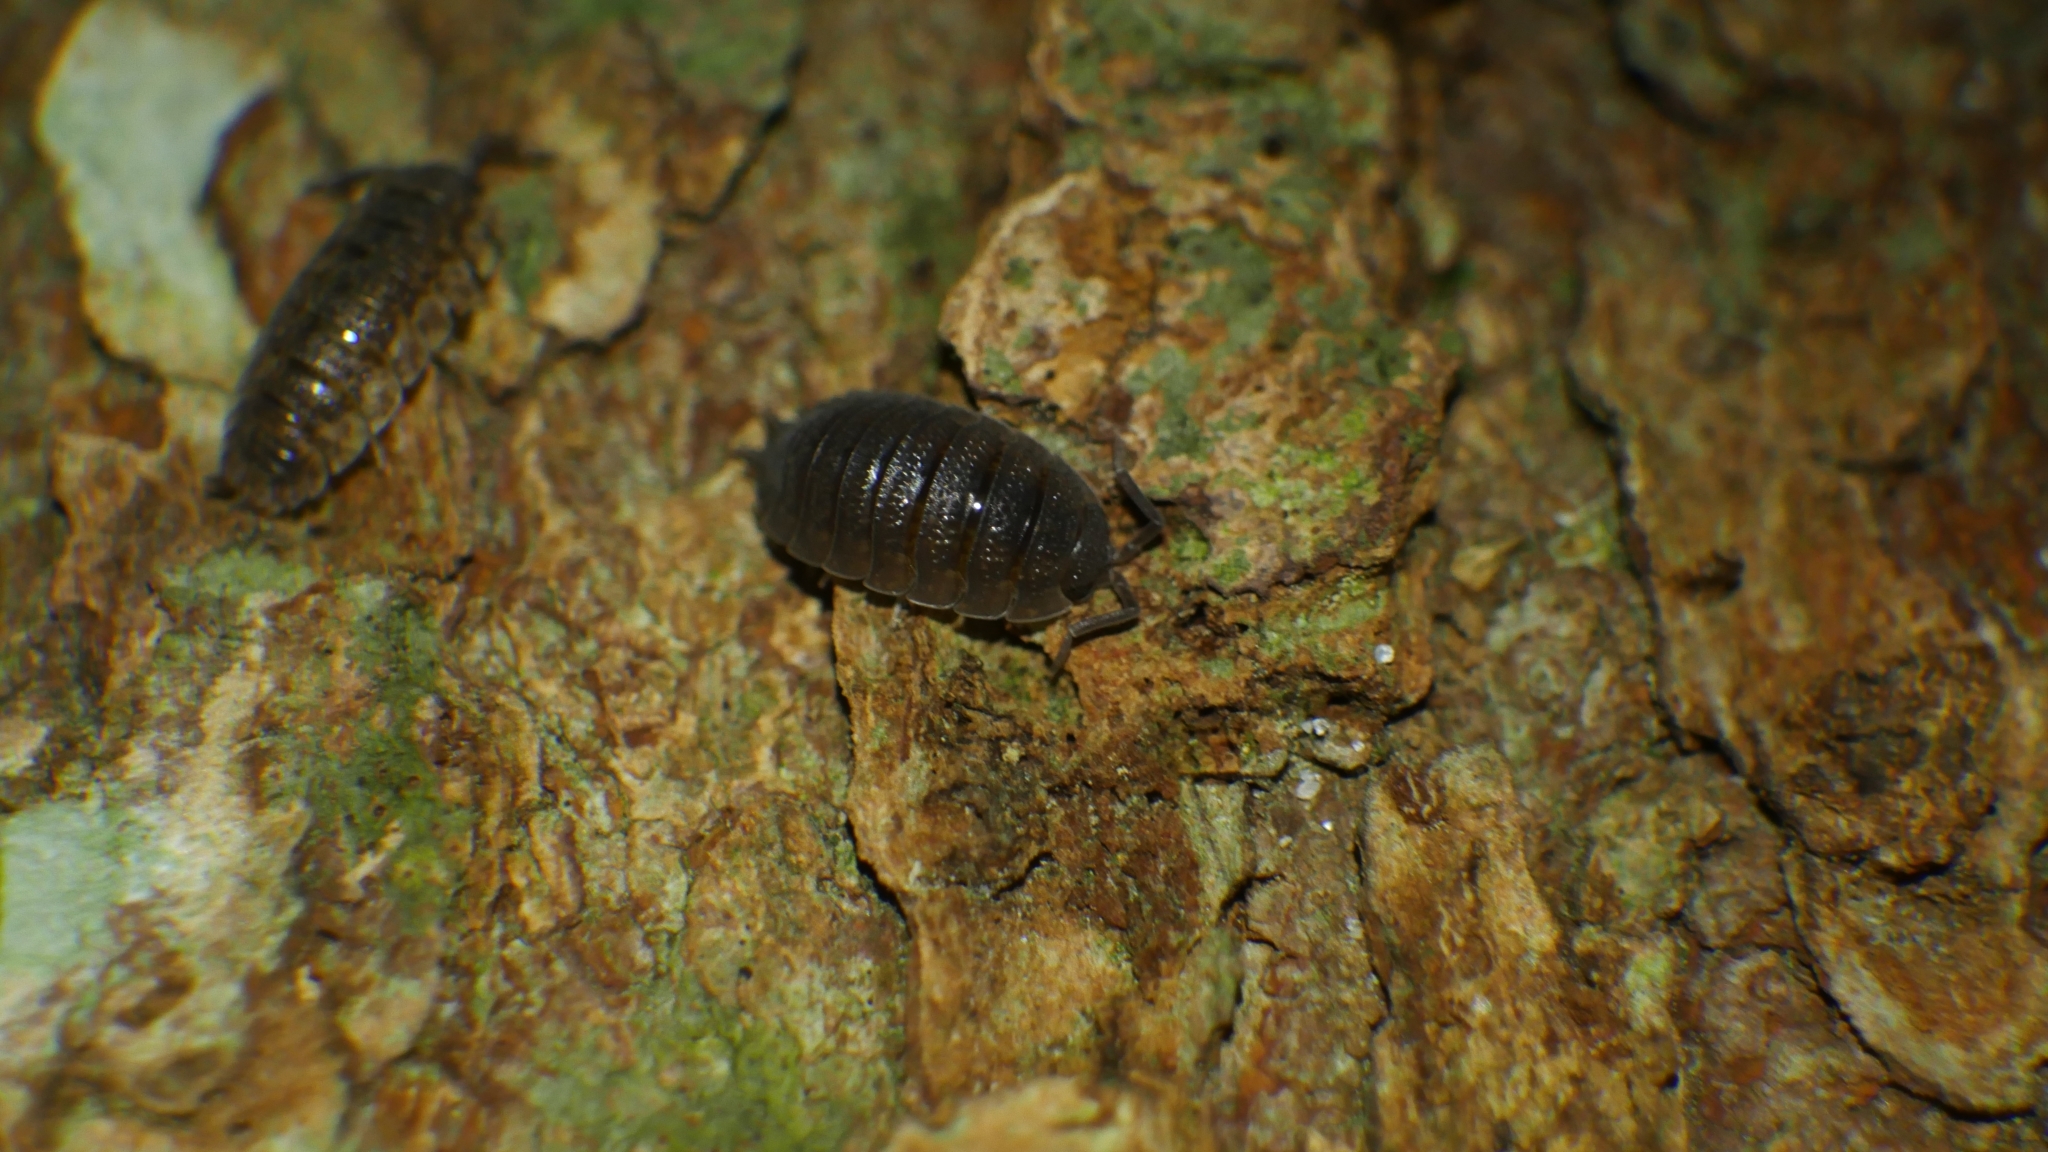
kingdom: Animalia
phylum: Arthropoda
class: Malacostraca
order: Isopoda
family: Porcellionidae
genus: Porcellio
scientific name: Porcellio scaber
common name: Common rough woodlouse
